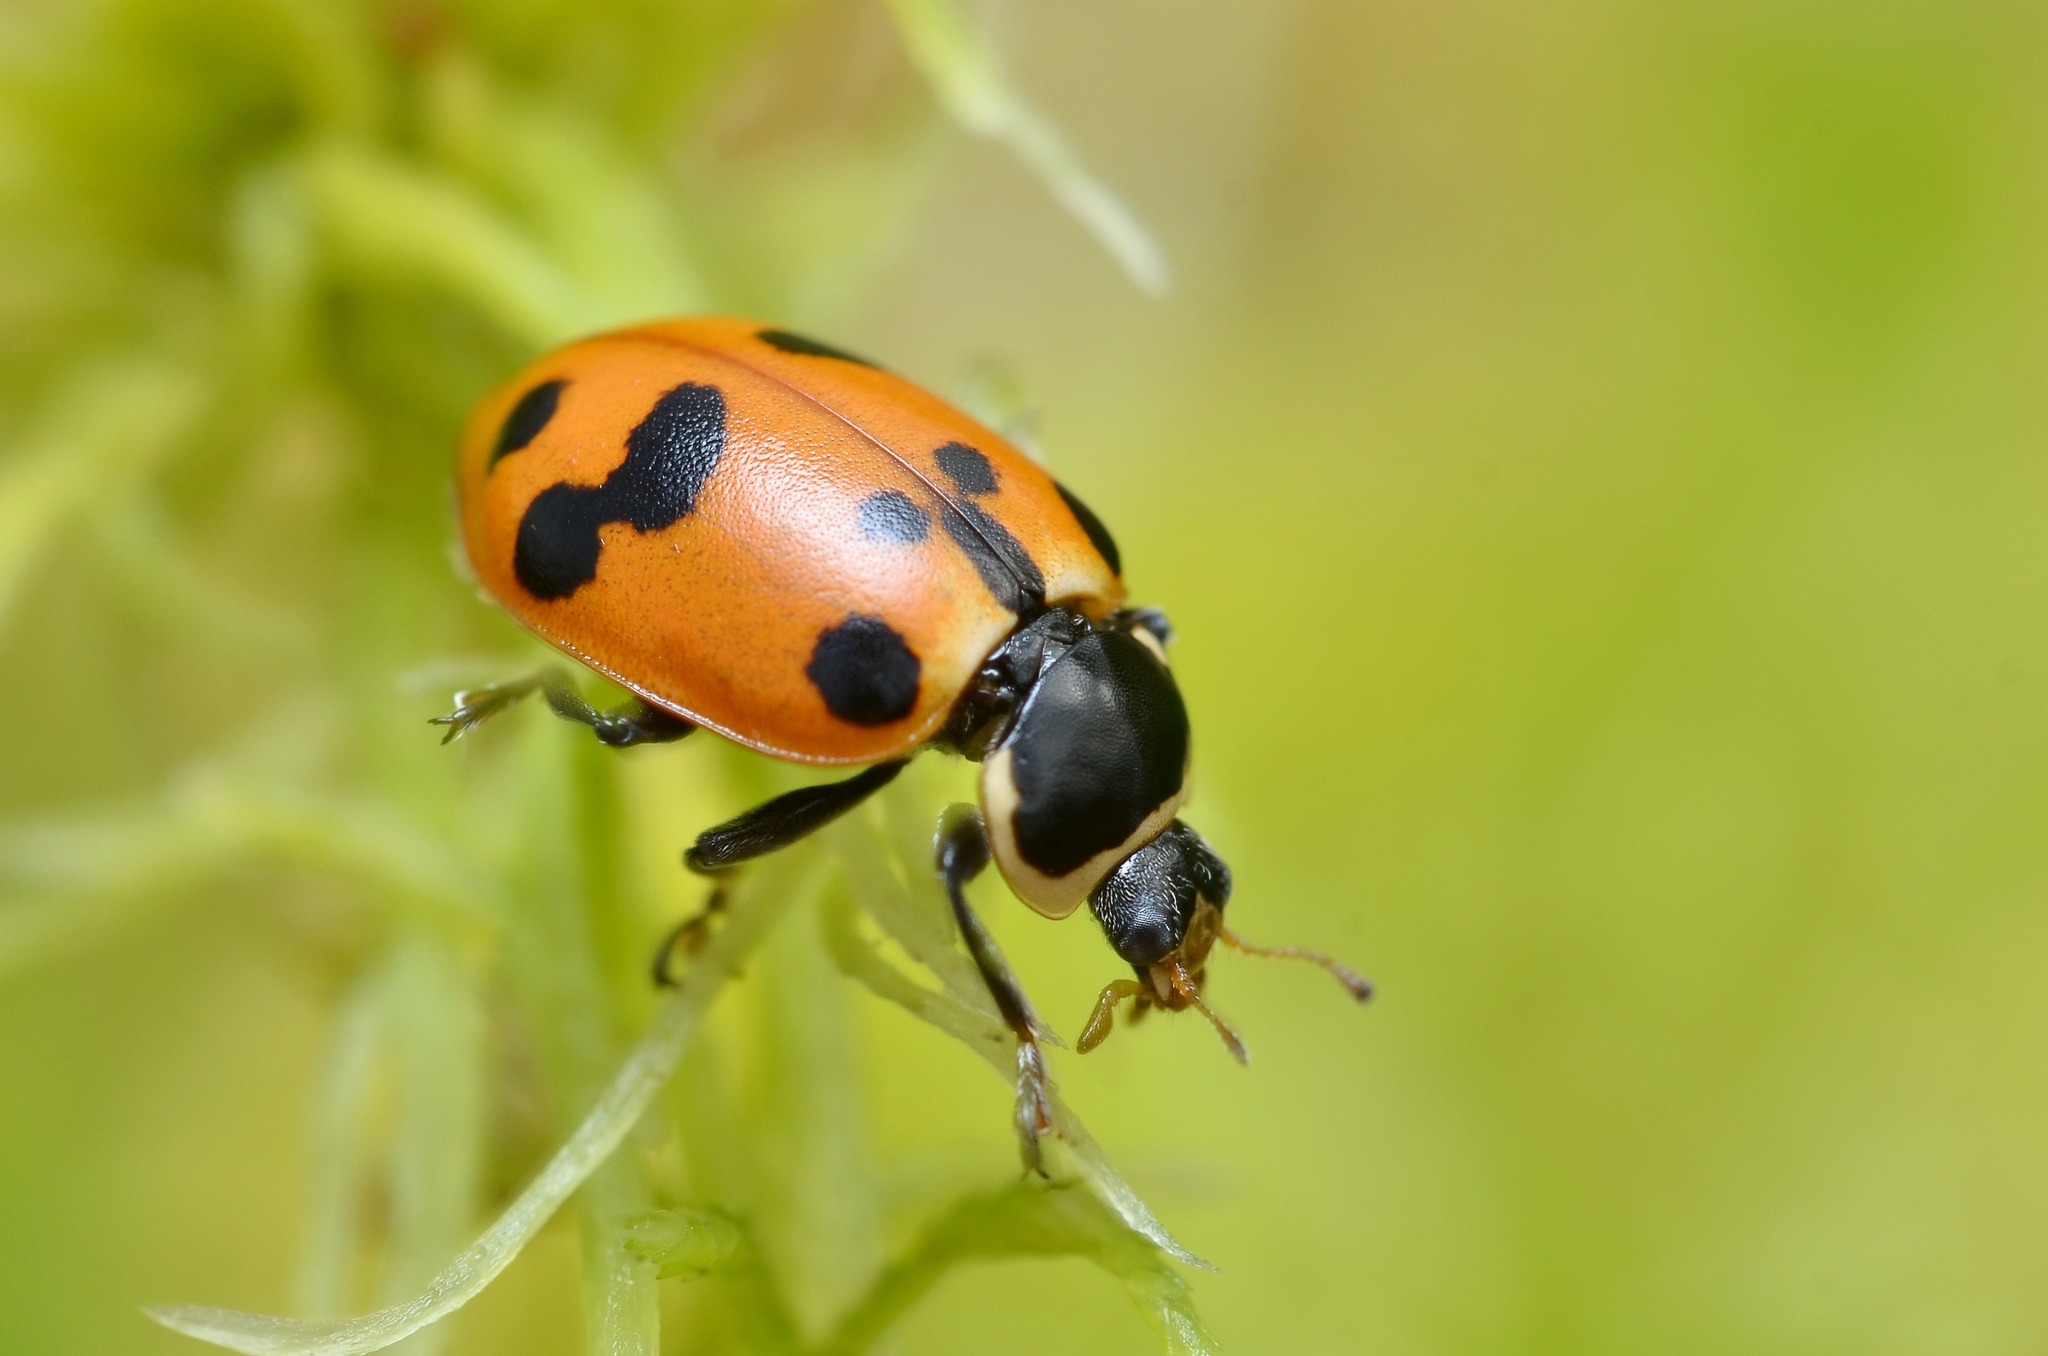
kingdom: Animalia
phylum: Arthropoda
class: Insecta
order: Coleoptera
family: Coccinellidae
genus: Hippodamia
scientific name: Hippodamia septemmaculata
